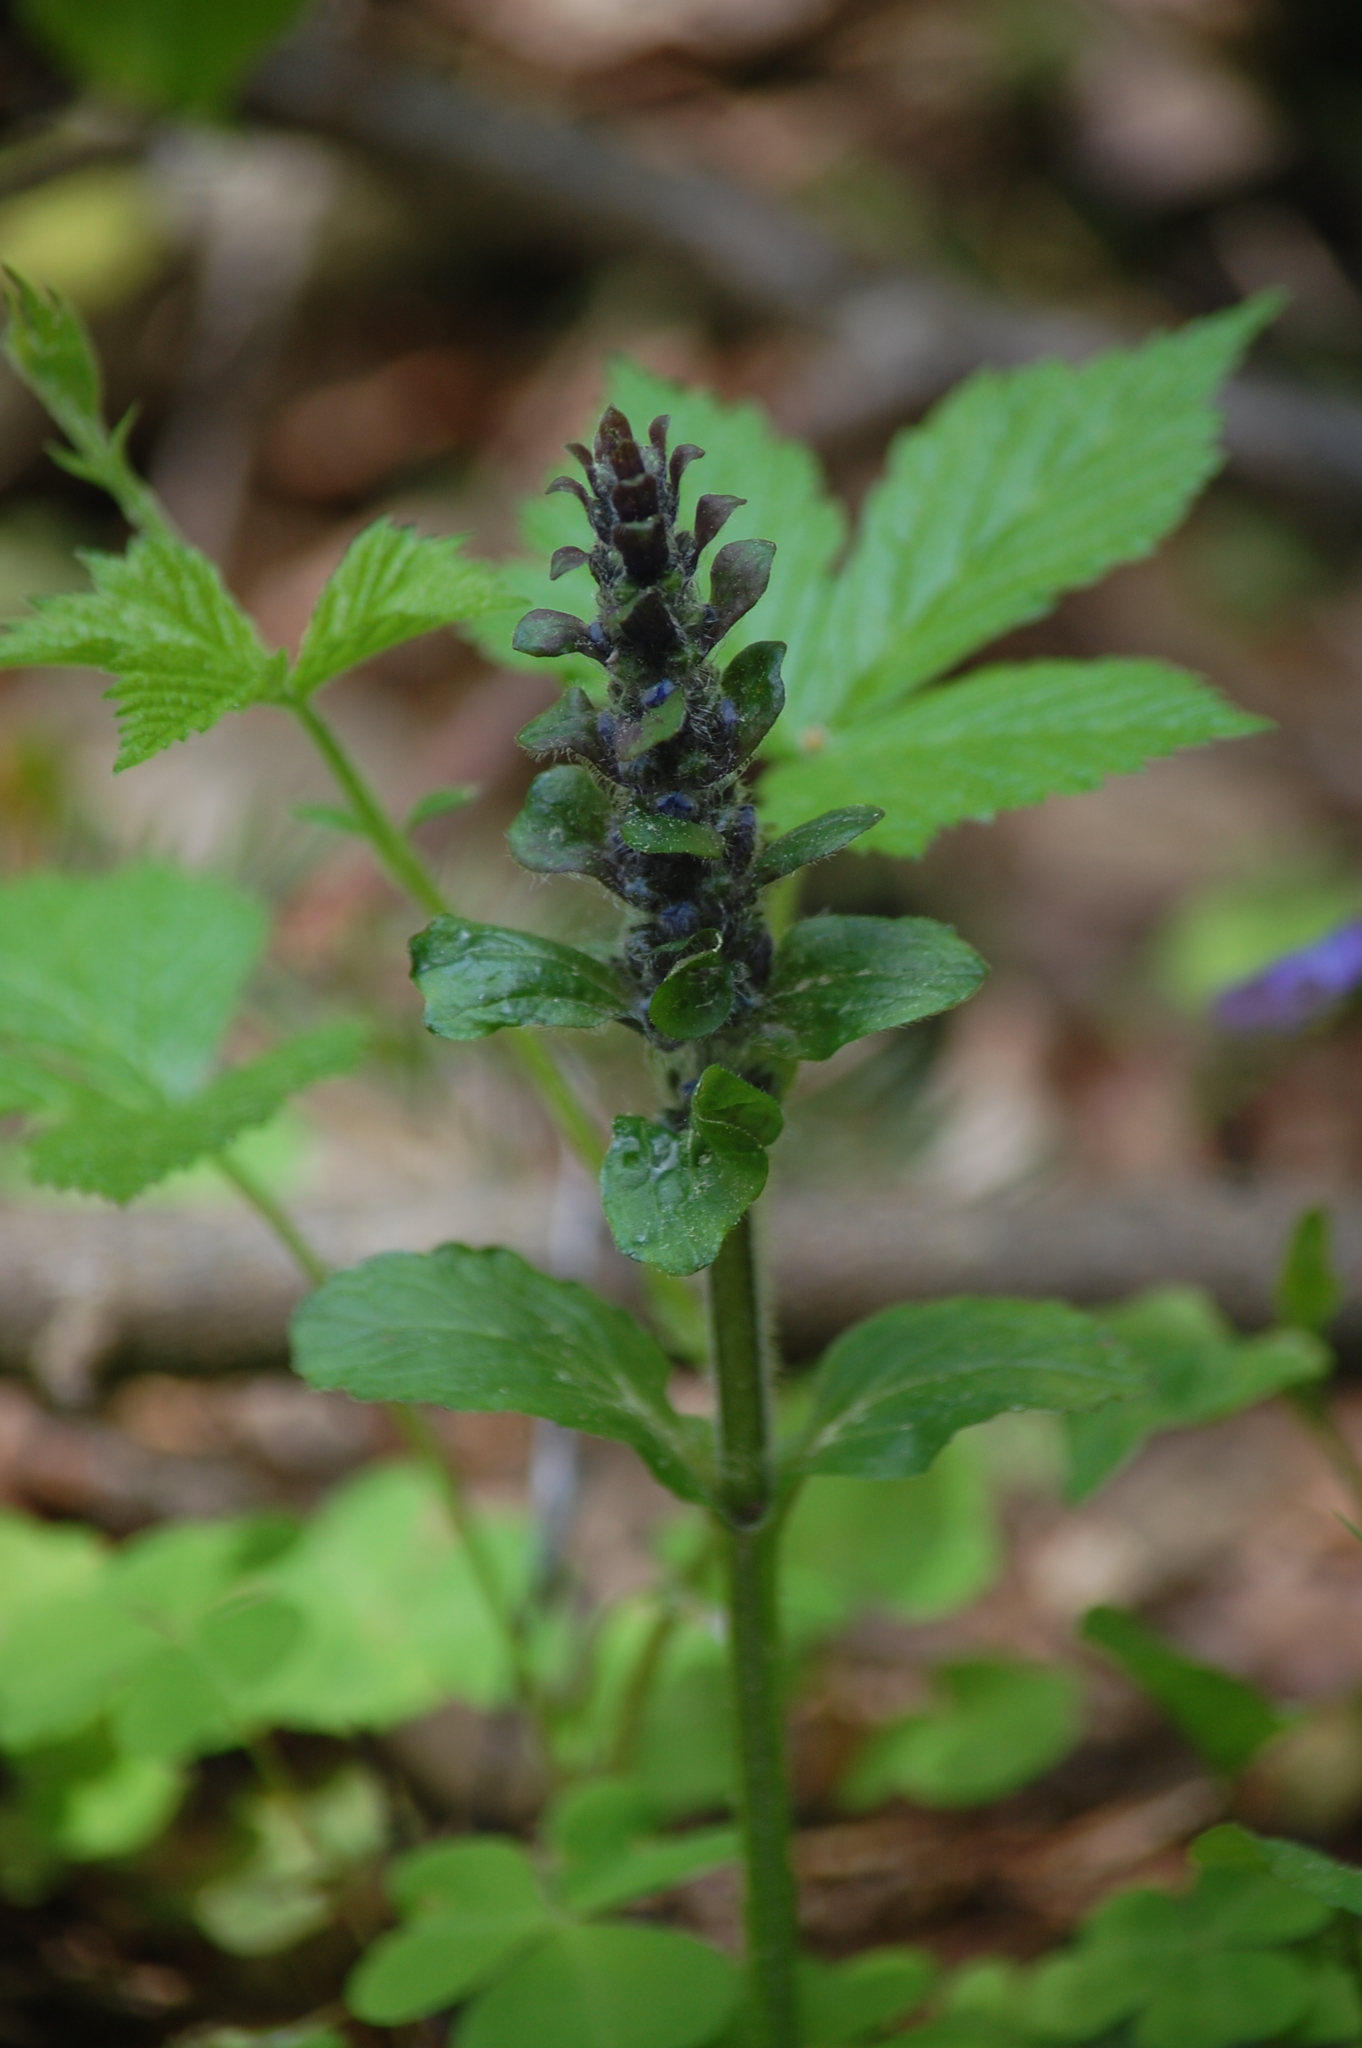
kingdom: Plantae
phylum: Tracheophyta
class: Magnoliopsida
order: Lamiales
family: Lamiaceae
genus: Ajuga
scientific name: Ajuga reptans
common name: Bugle
